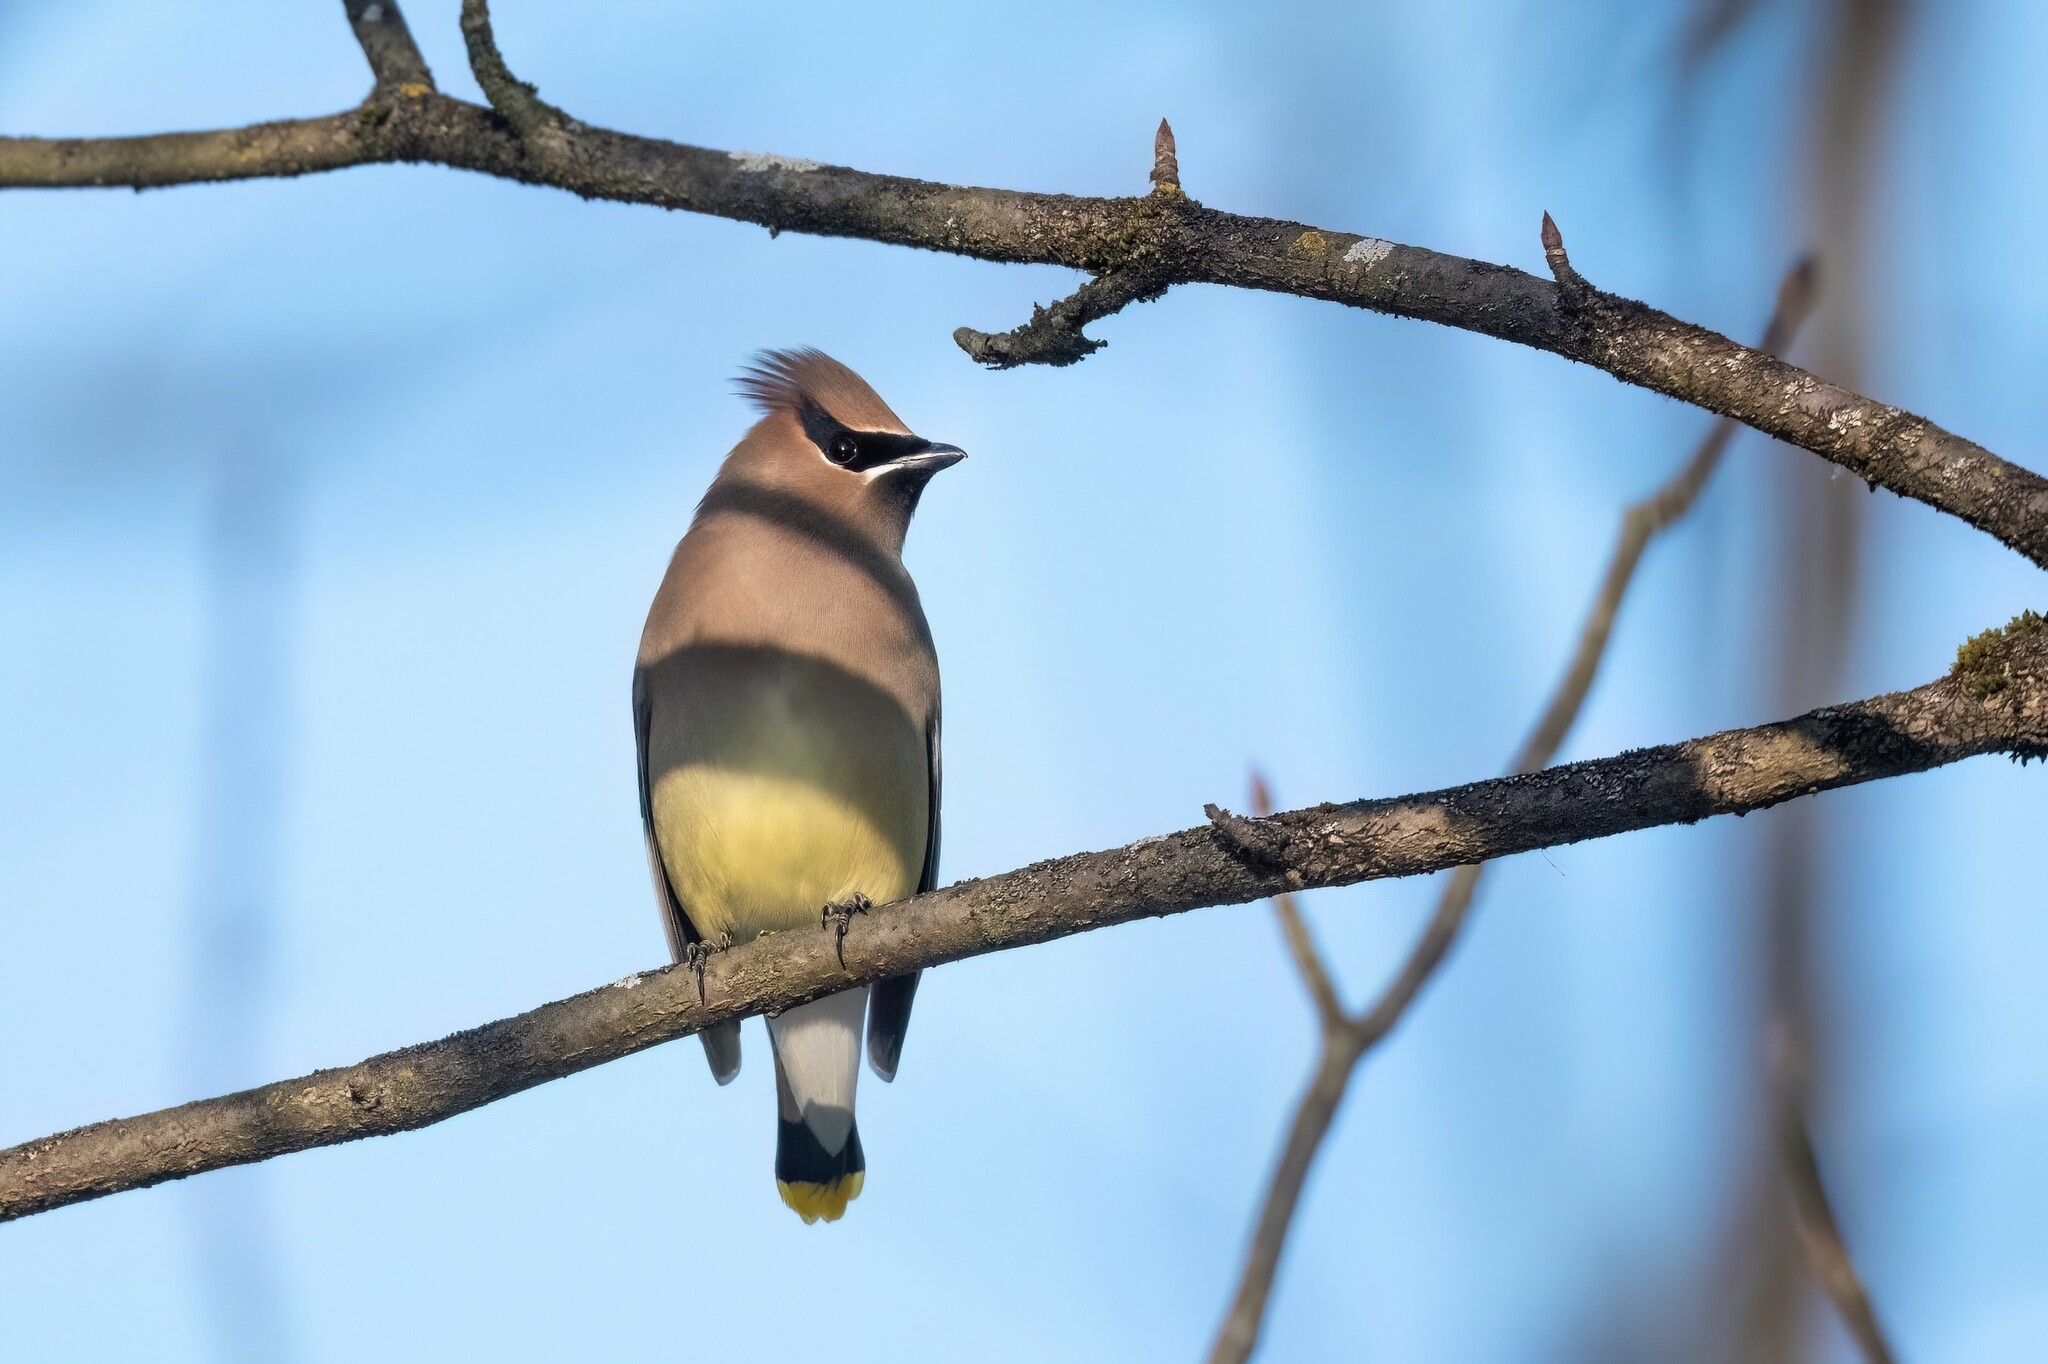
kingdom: Animalia
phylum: Chordata
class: Aves
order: Passeriformes
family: Bombycillidae
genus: Bombycilla
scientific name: Bombycilla cedrorum
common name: Cedar waxwing
